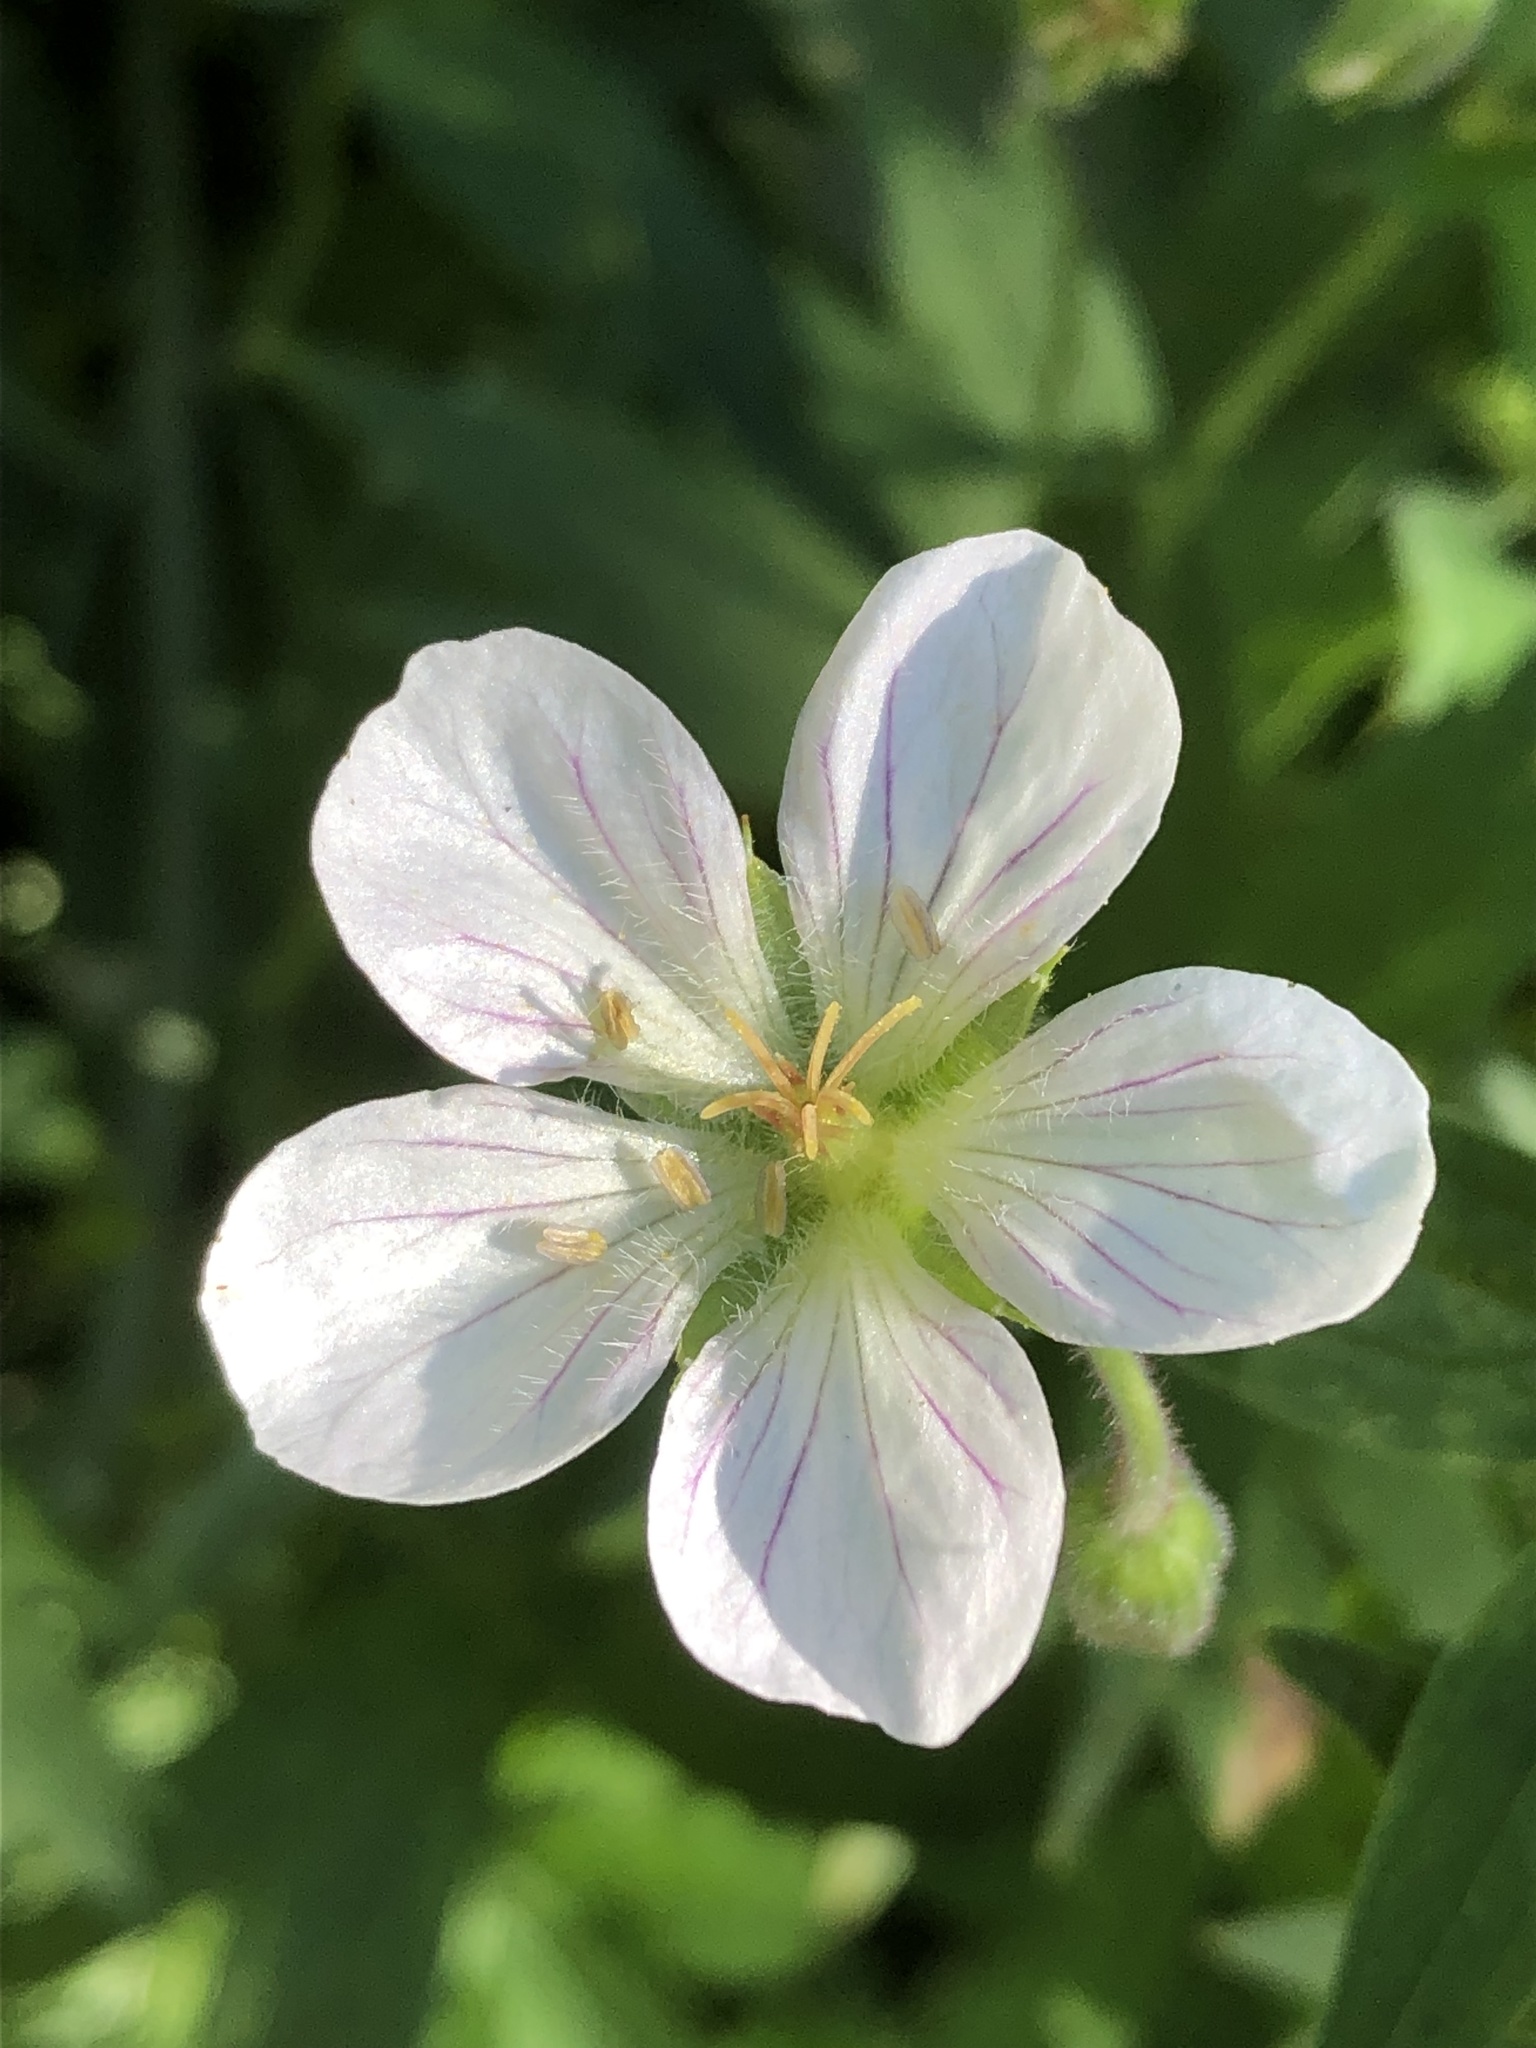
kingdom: Plantae
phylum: Tracheophyta
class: Magnoliopsida
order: Geraniales
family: Geraniaceae
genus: Geranium
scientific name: Geranium richardsonii
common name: Richardson's crane's-bill
